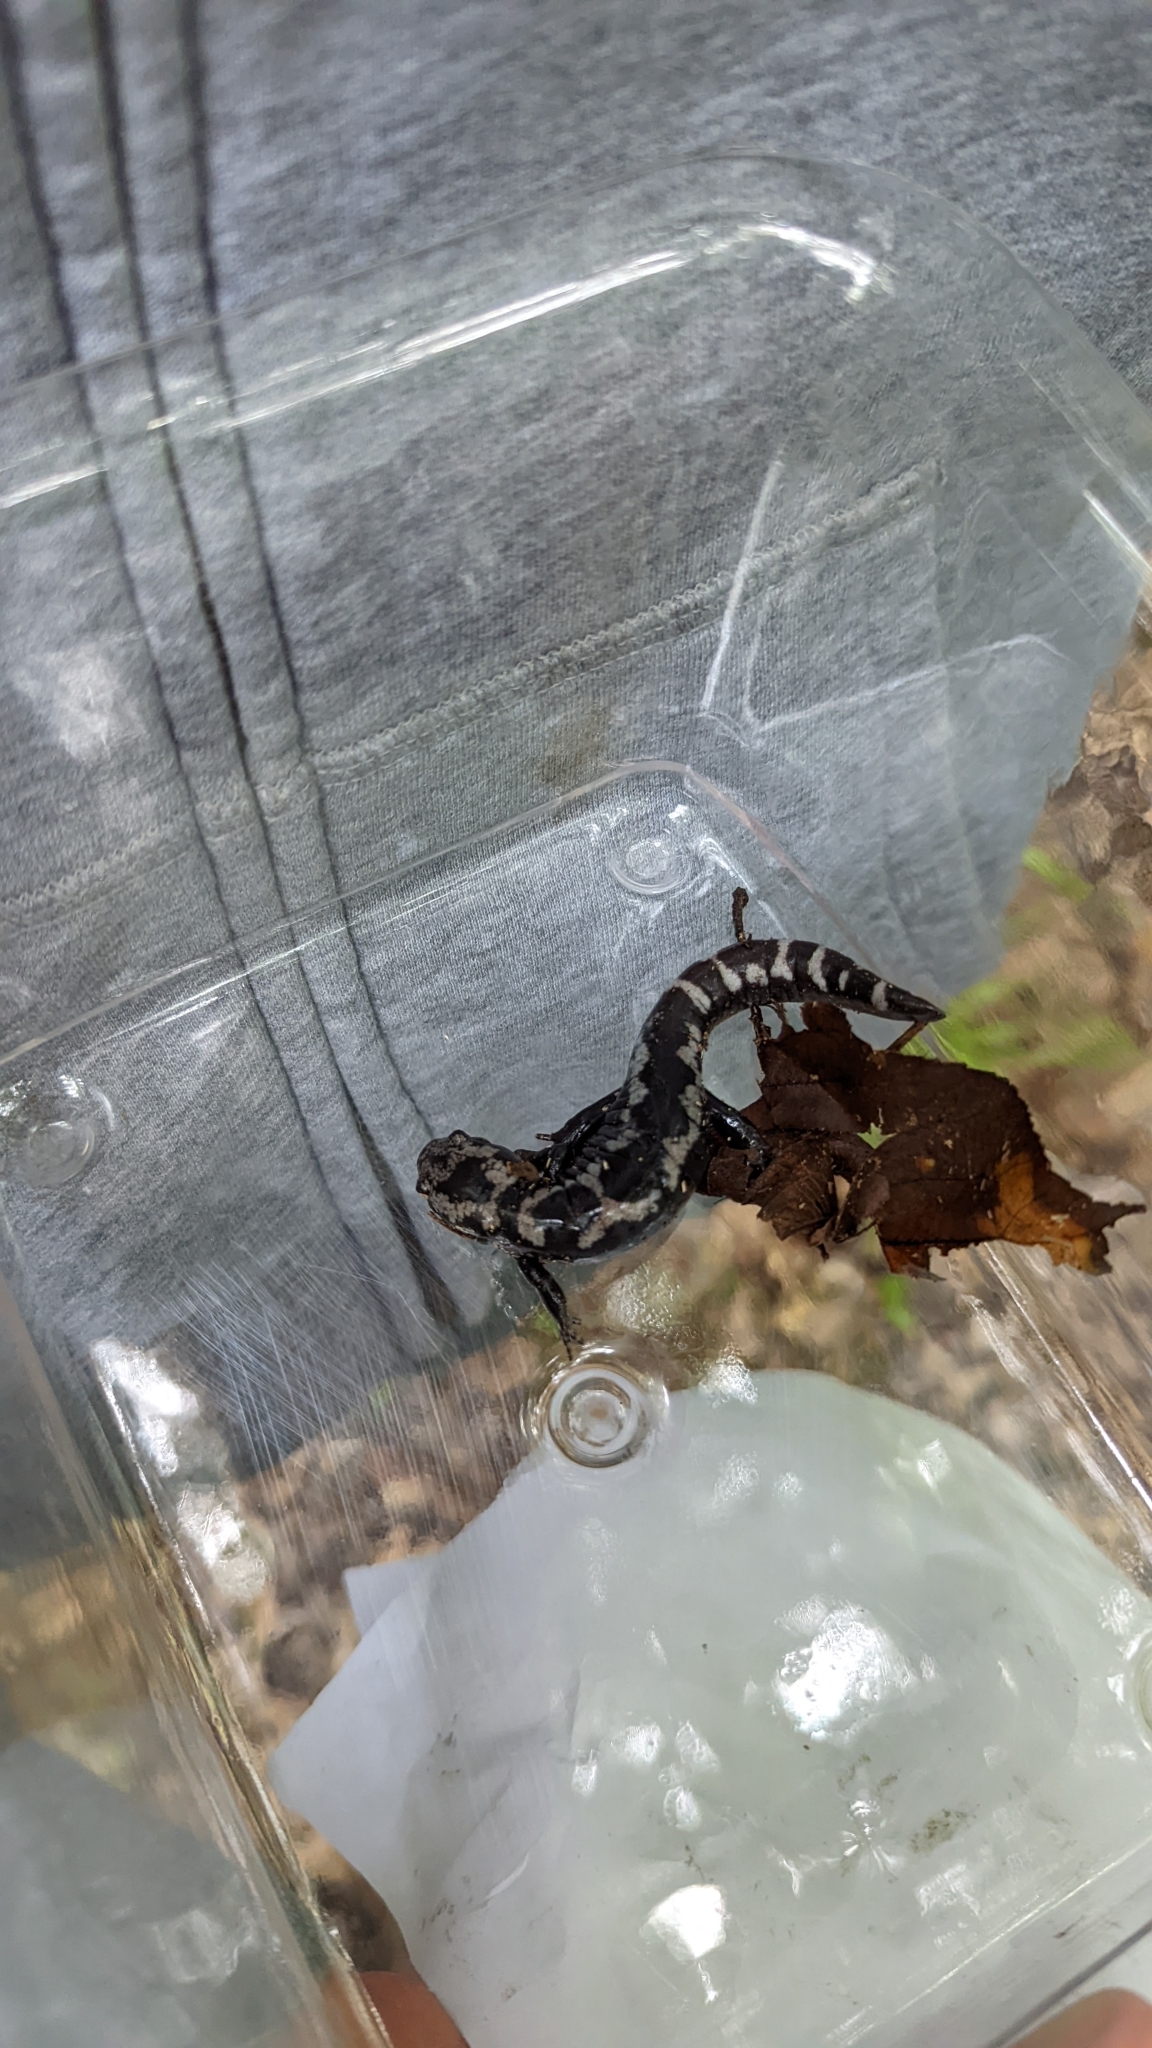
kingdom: Animalia
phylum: Chordata
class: Amphibia
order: Caudata
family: Ambystomatidae
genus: Ambystoma
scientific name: Ambystoma opacum
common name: Marbled salamander
